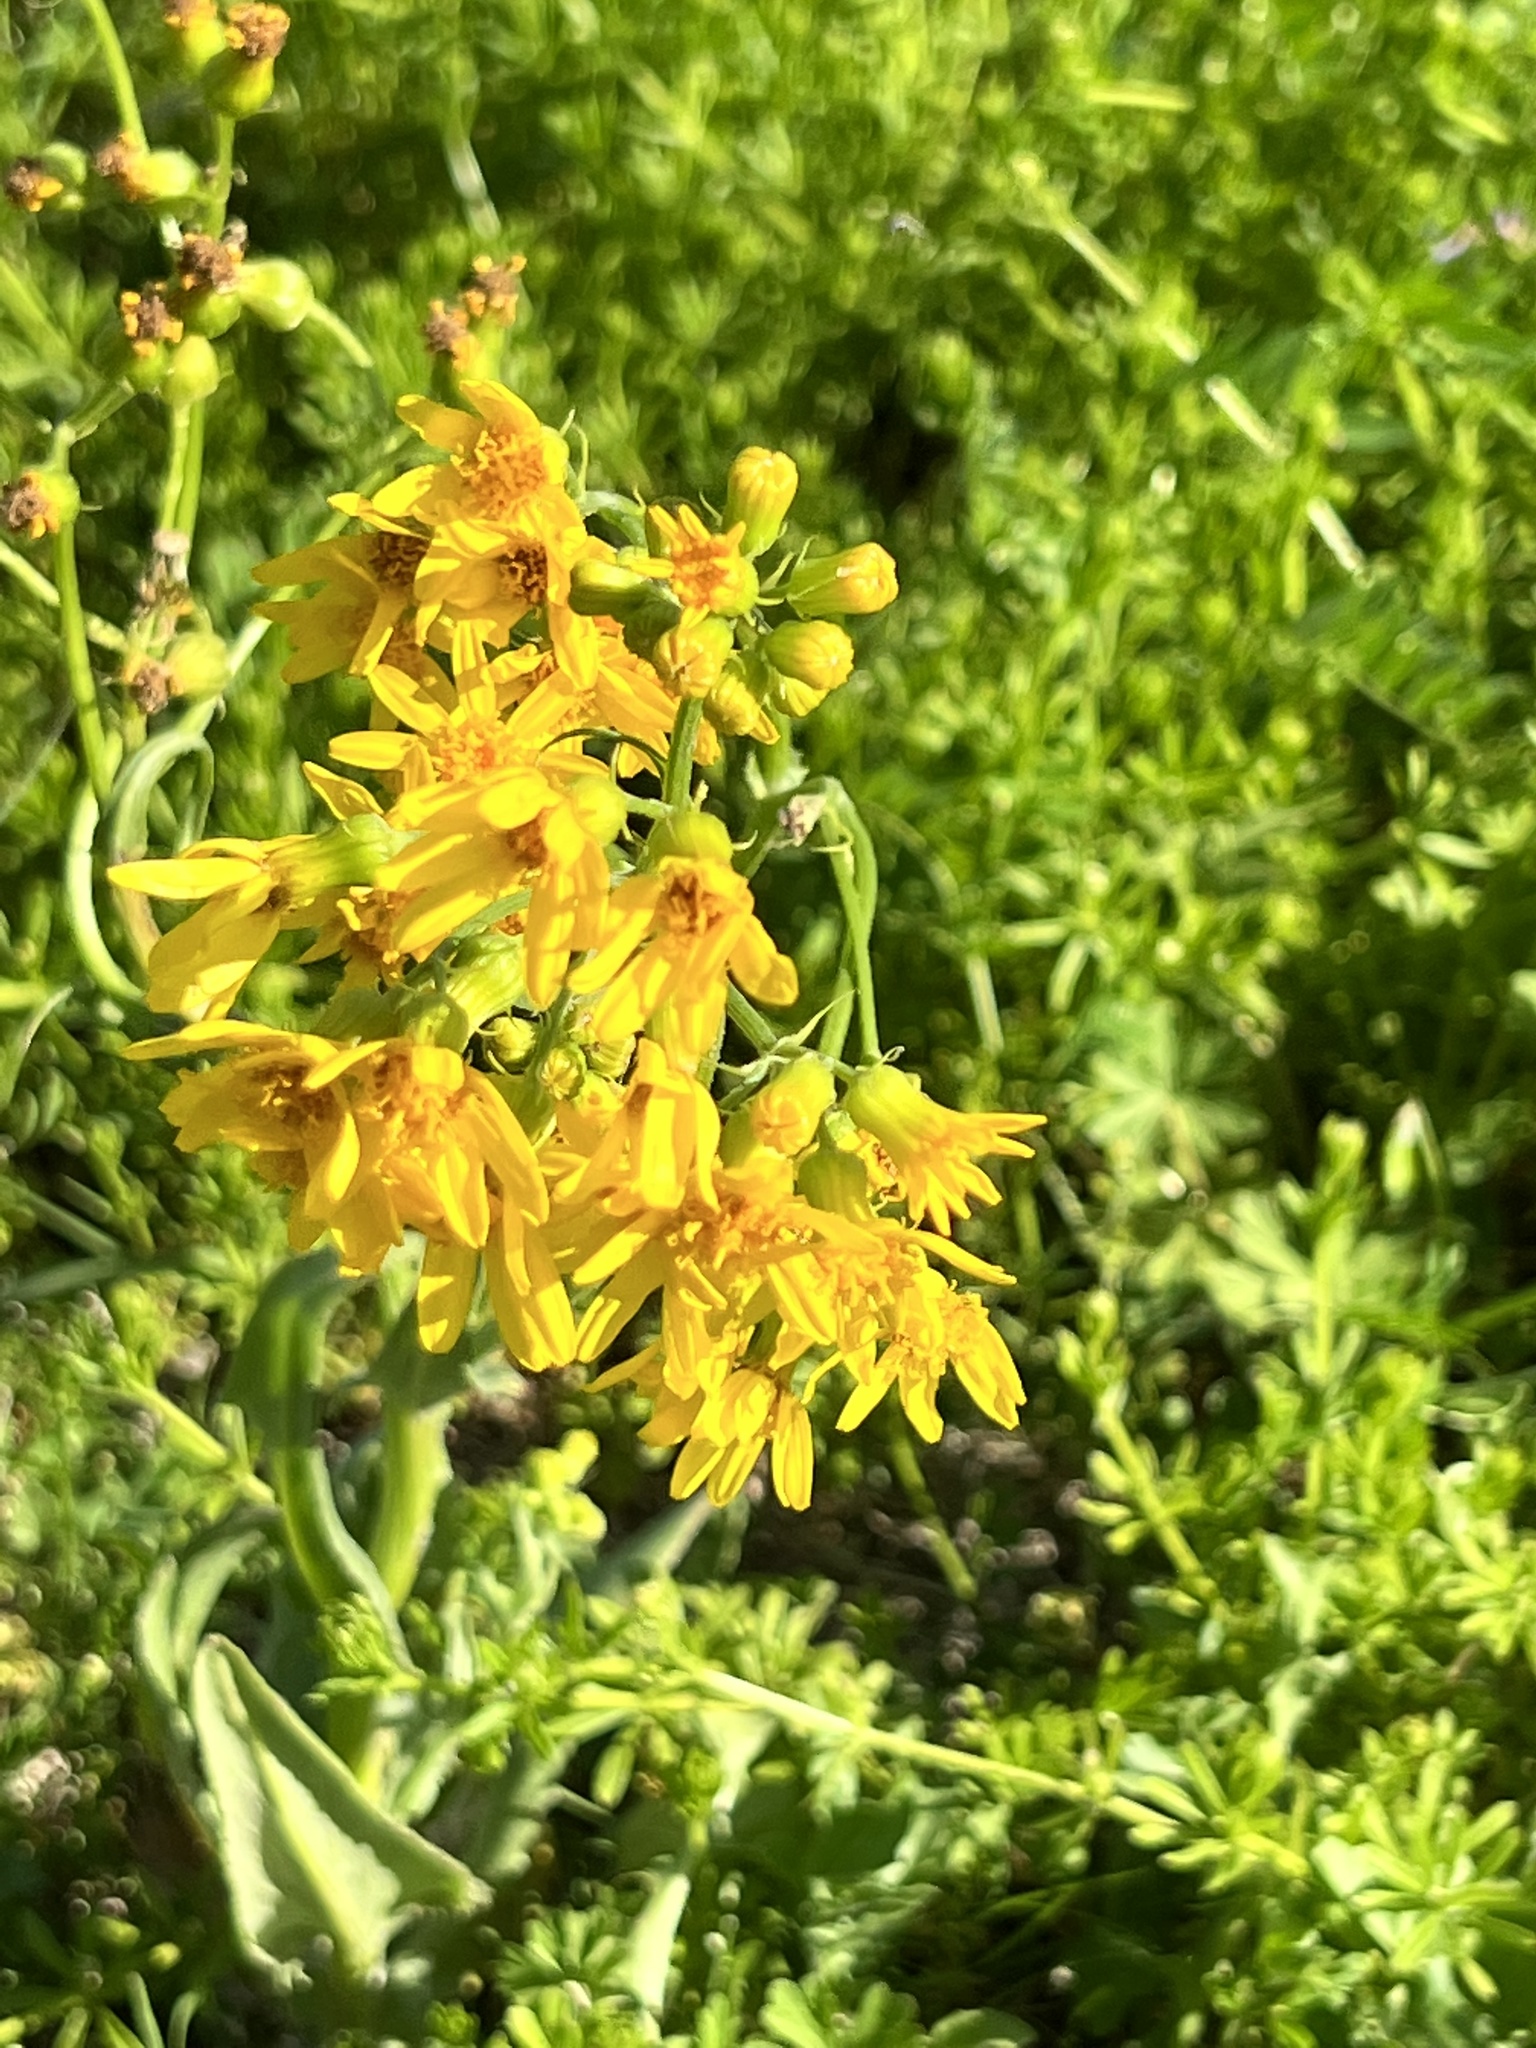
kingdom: Plantae
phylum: Tracheophyta
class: Magnoliopsida
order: Asterales
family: Asteraceae
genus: Senecio
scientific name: Senecio ampullaceus
